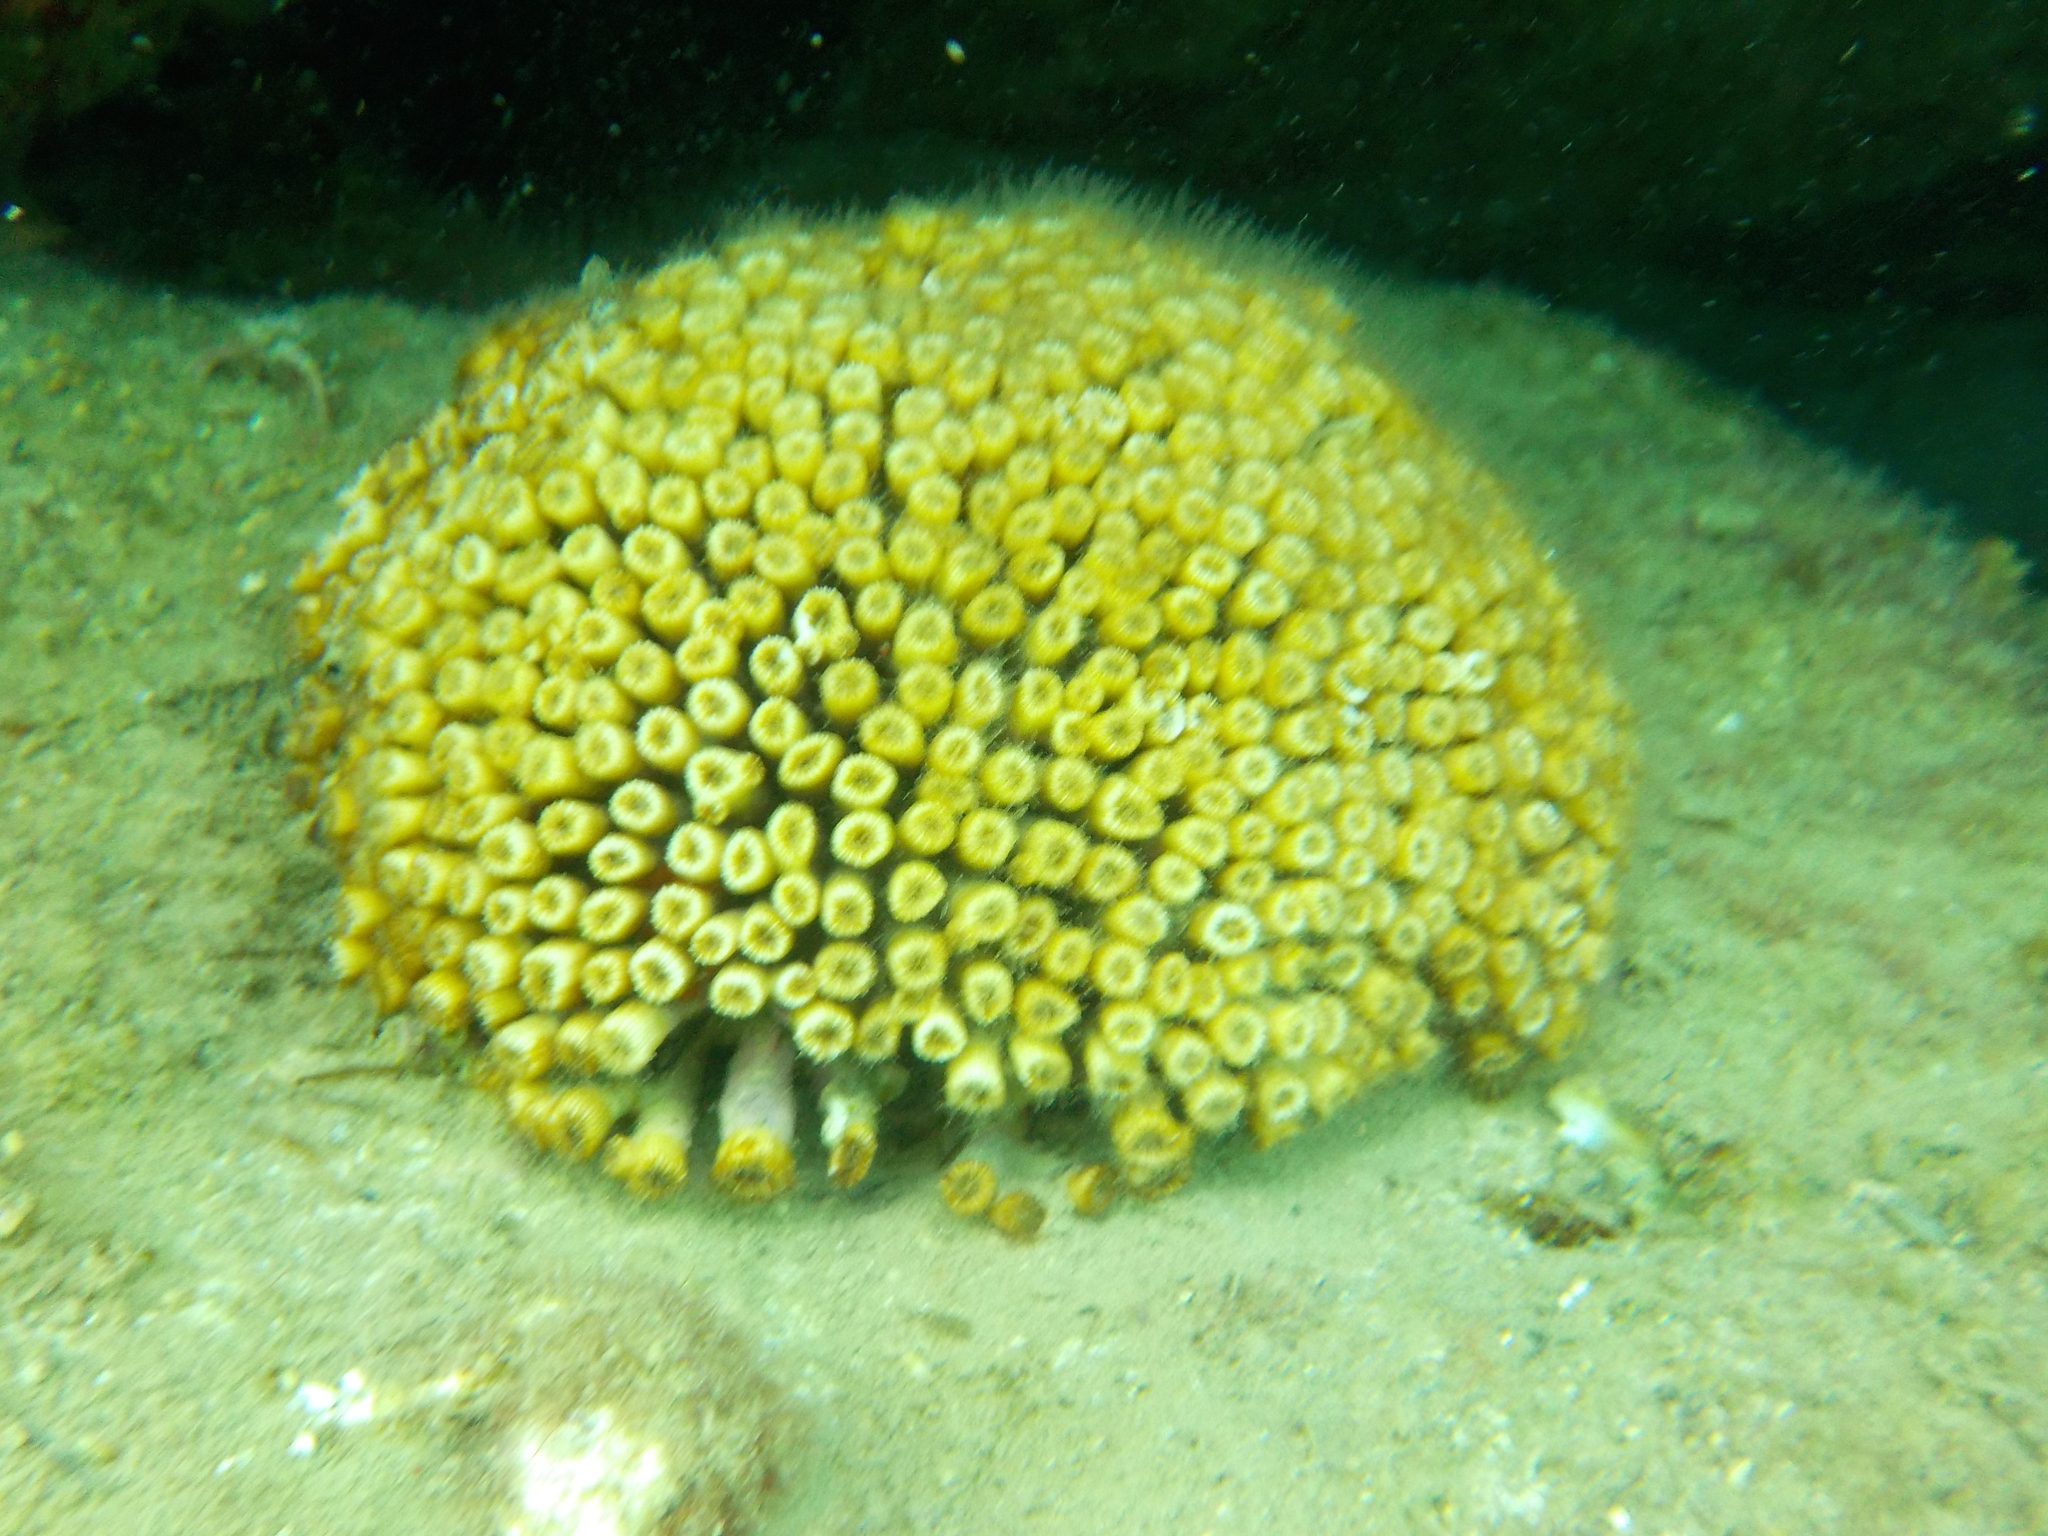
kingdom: Animalia
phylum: Cnidaria
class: Anthozoa
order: Scleractinia
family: Cladocoridae
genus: Cladocora
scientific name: Cladocora caespitosa
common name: Cladocora
